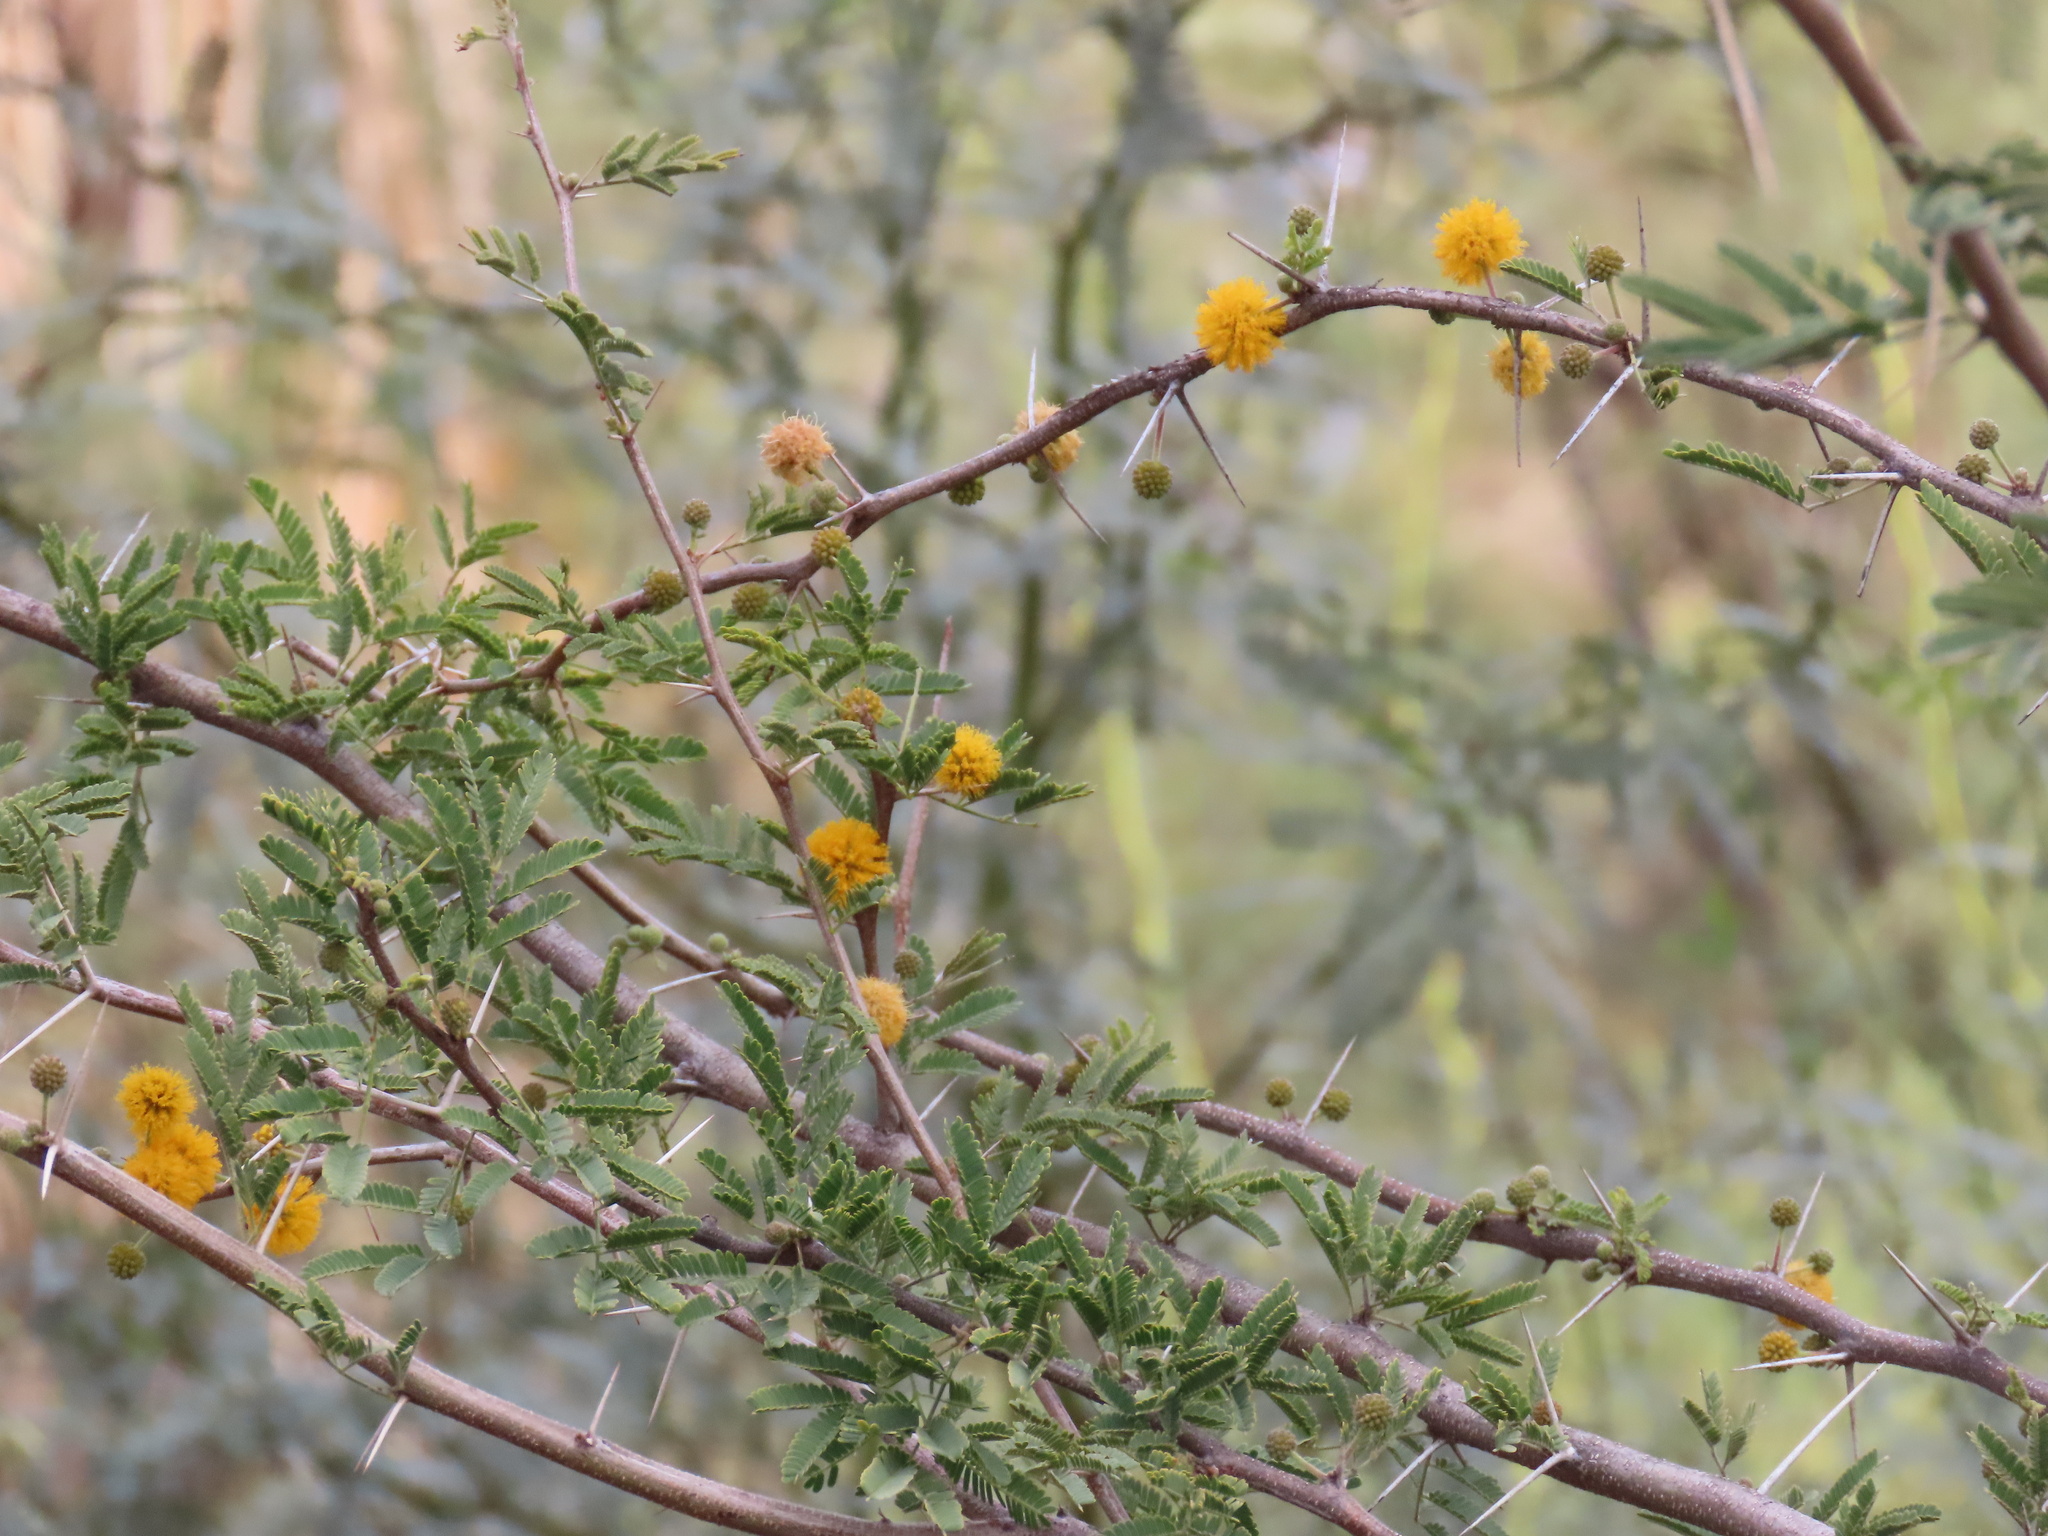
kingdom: Plantae
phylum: Tracheophyta
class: Magnoliopsida
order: Fabales
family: Fabaceae
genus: Vachellia
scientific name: Vachellia farnesiana
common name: Sweet acacia
